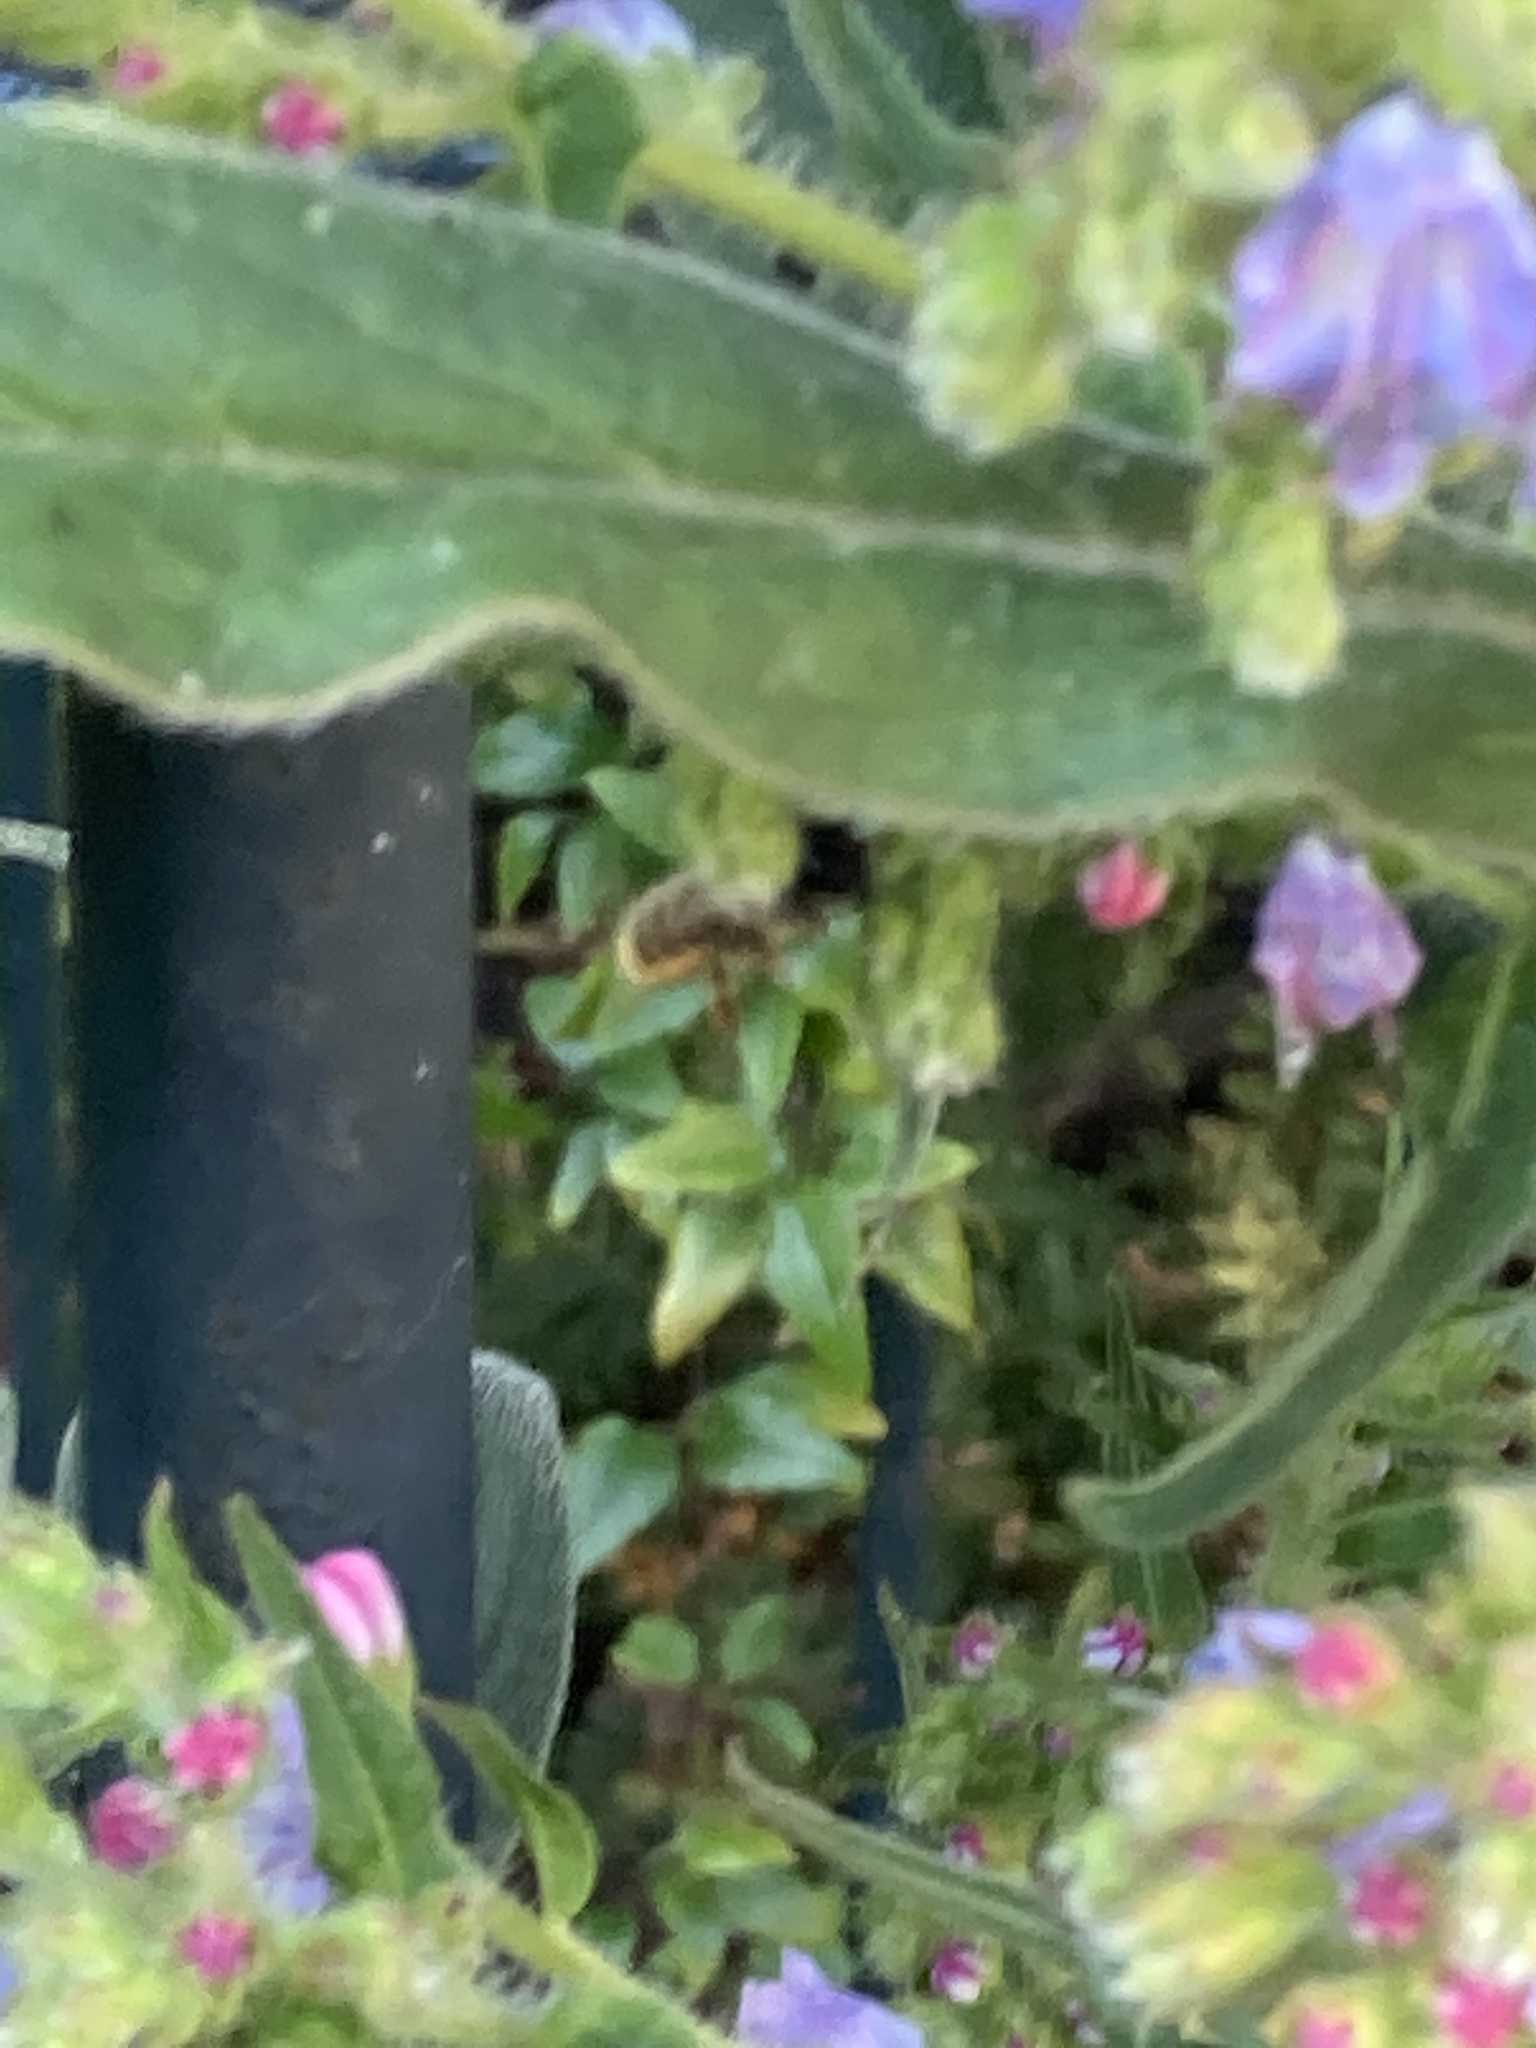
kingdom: Animalia
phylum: Arthropoda
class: Insecta
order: Hymenoptera
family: Megachilidae
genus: Osmia
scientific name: Osmia bicornis
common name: Red mason bee
